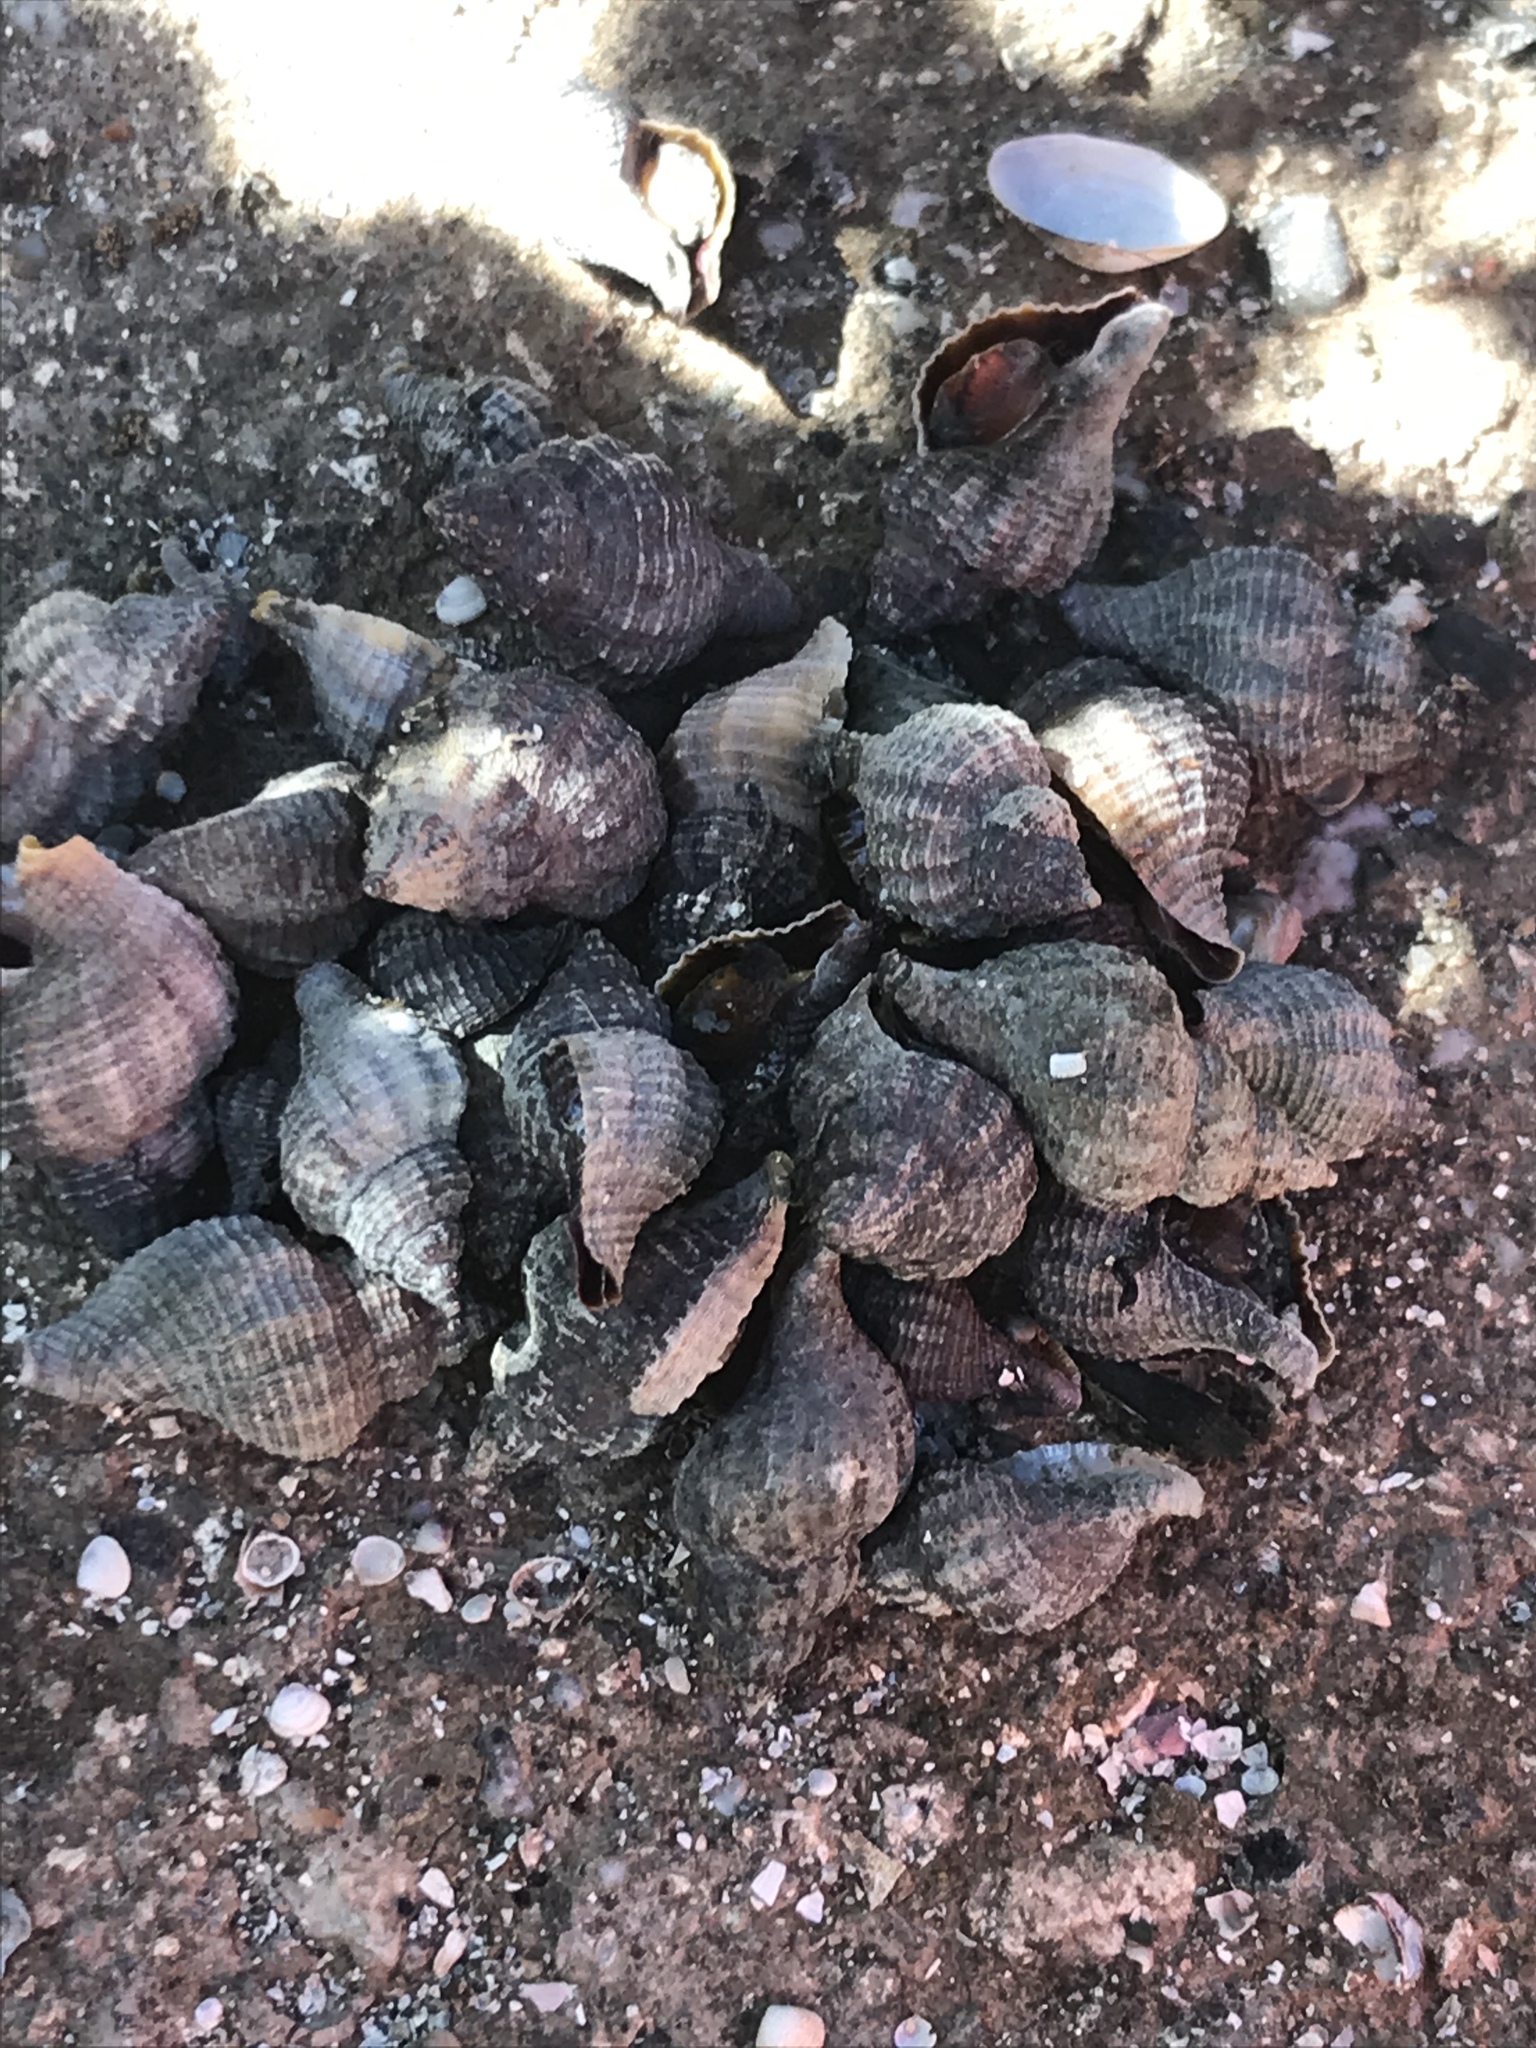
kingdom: Animalia
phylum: Mollusca
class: Gastropoda
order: Neogastropoda
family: Muricidae
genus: Urosalpinx
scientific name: Urosalpinx cinerea
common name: American sting winkle
